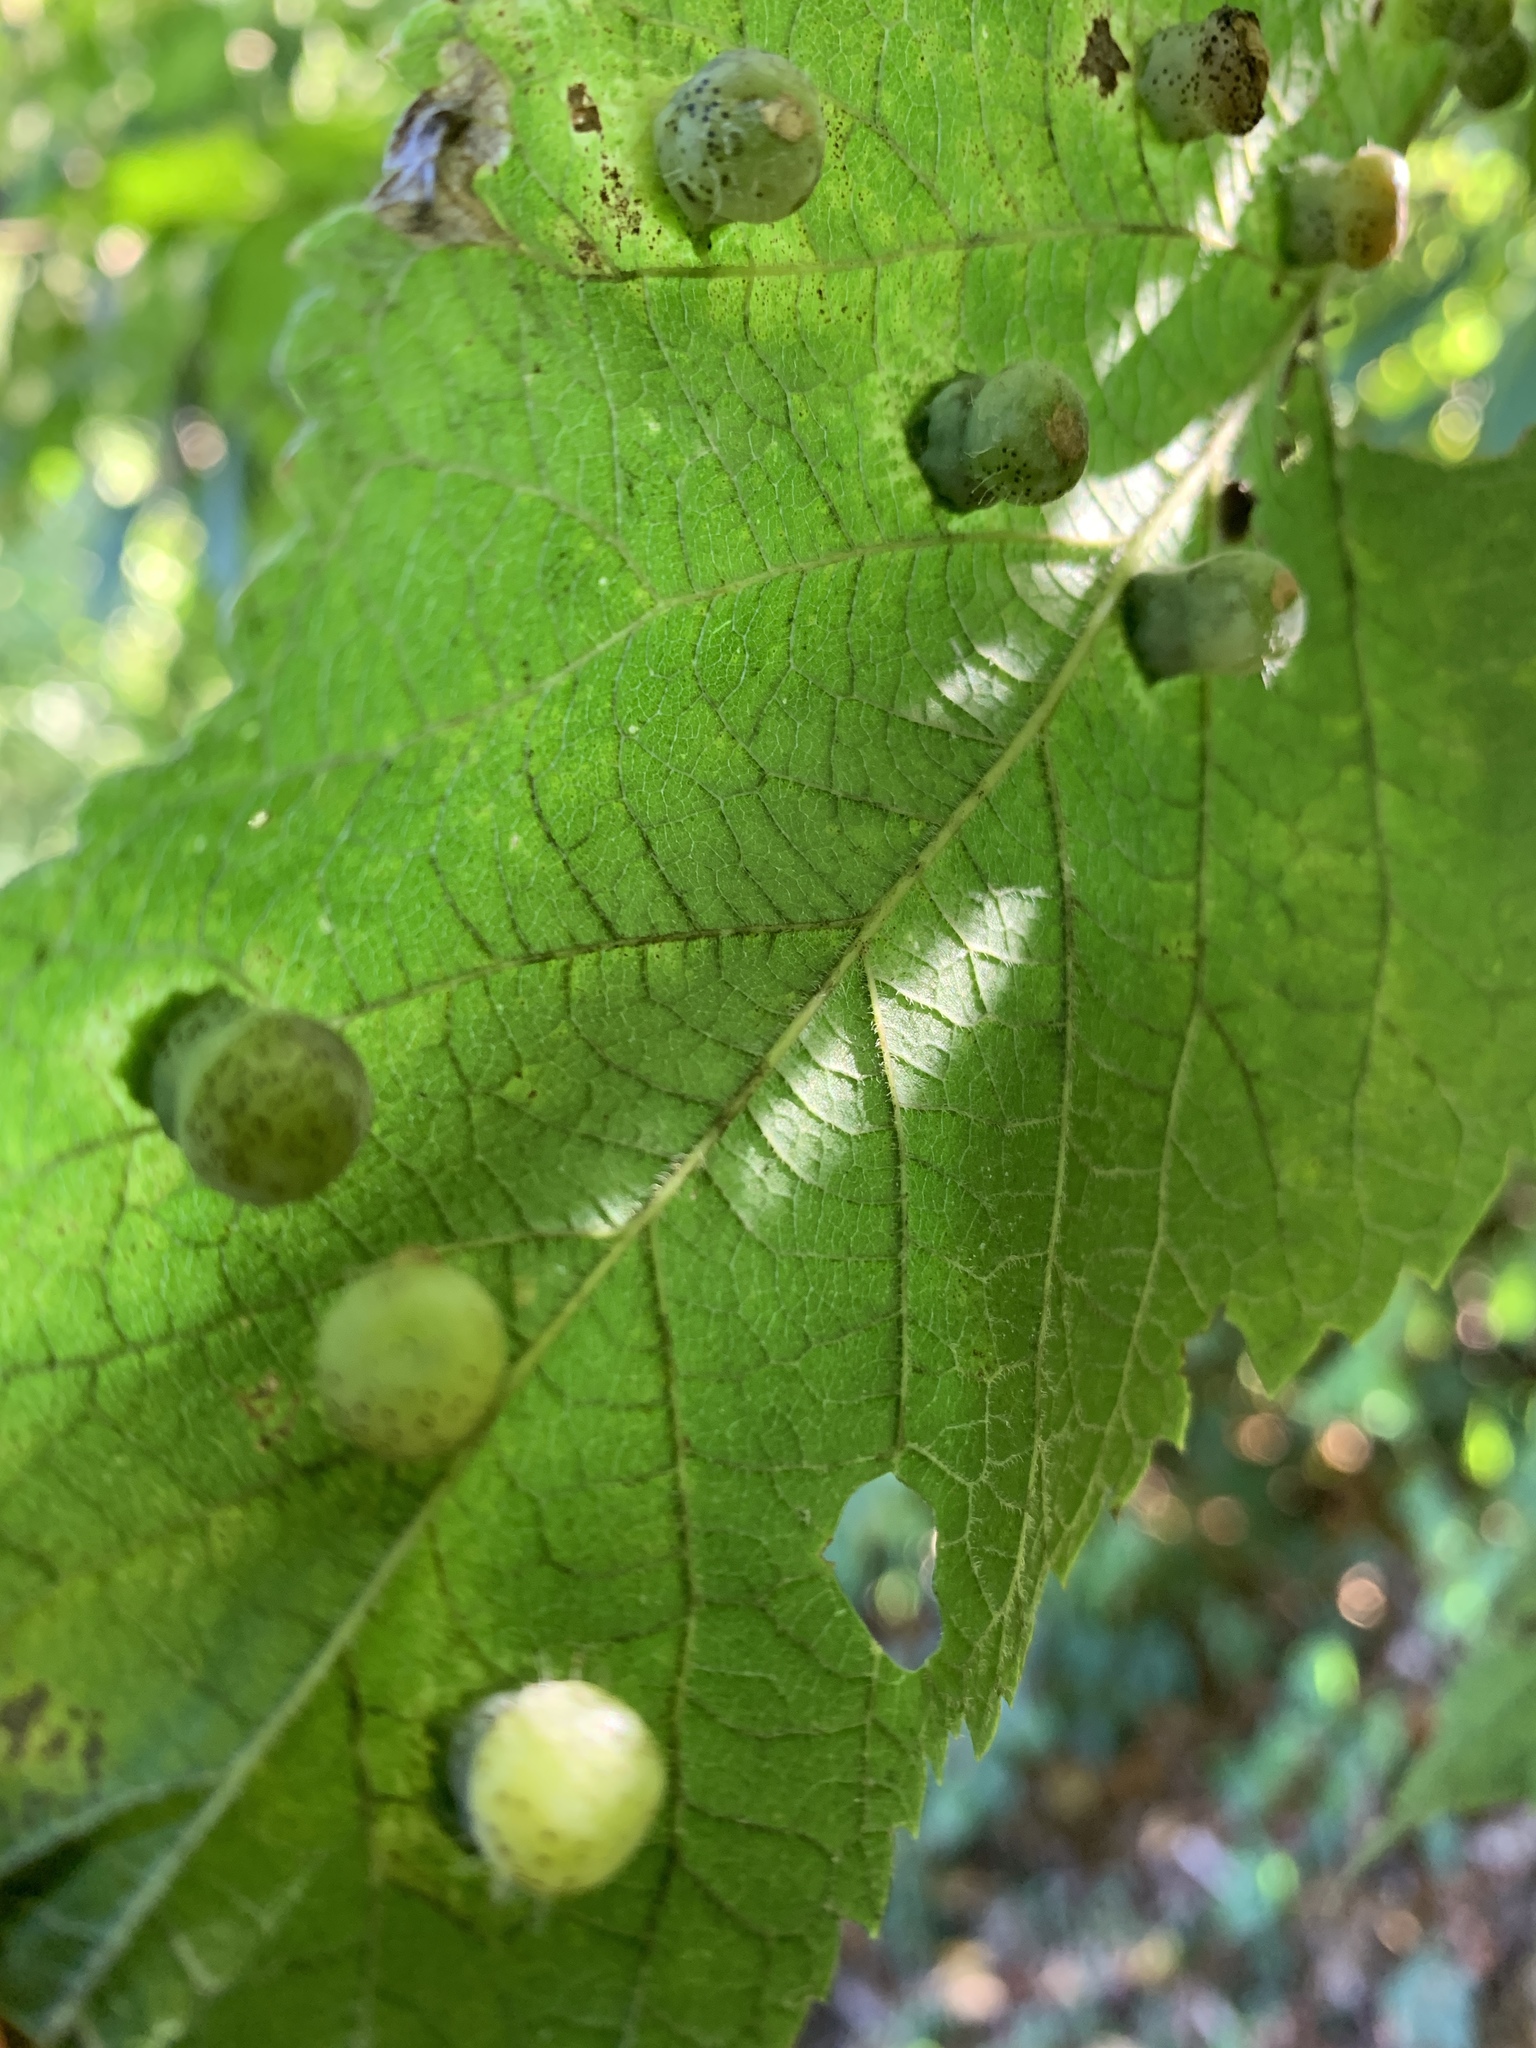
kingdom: Animalia
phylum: Arthropoda
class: Insecta
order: Hemiptera
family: Aphalaridae
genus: Pachypsylla
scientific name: Pachypsylla celtidismamma
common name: Hackberry nipplegall psyllid
